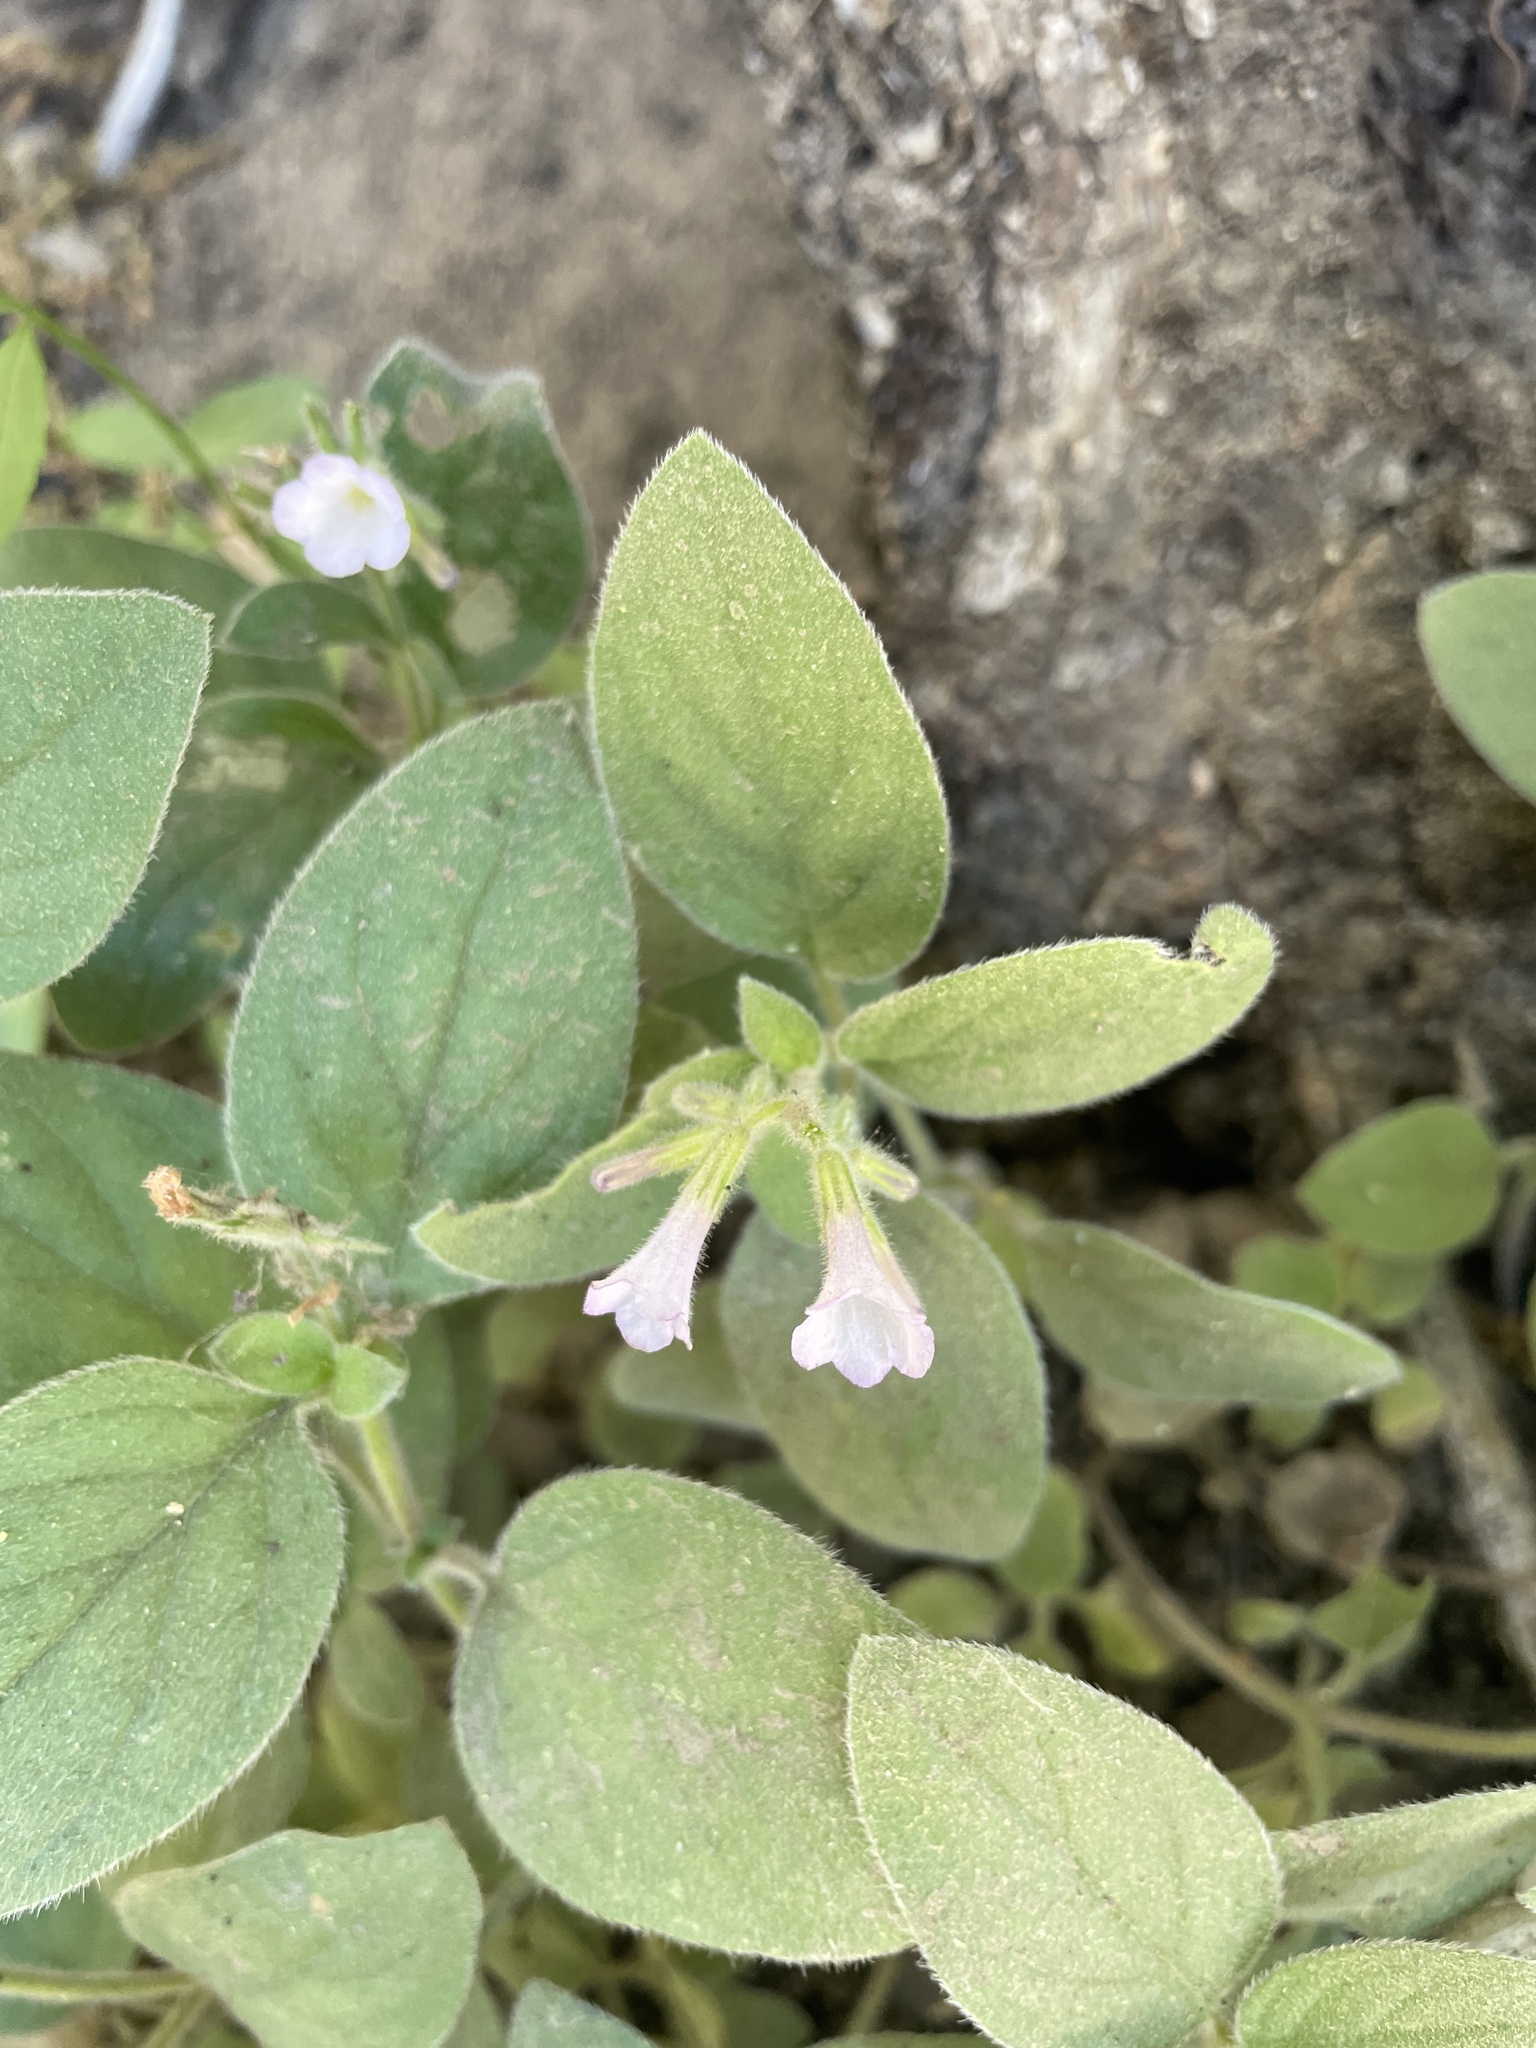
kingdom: Plantae
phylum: Tracheophyta
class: Magnoliopsida
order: Boraginales
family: Hydrophyllaceae
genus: Draperia
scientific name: Draperia systyla
